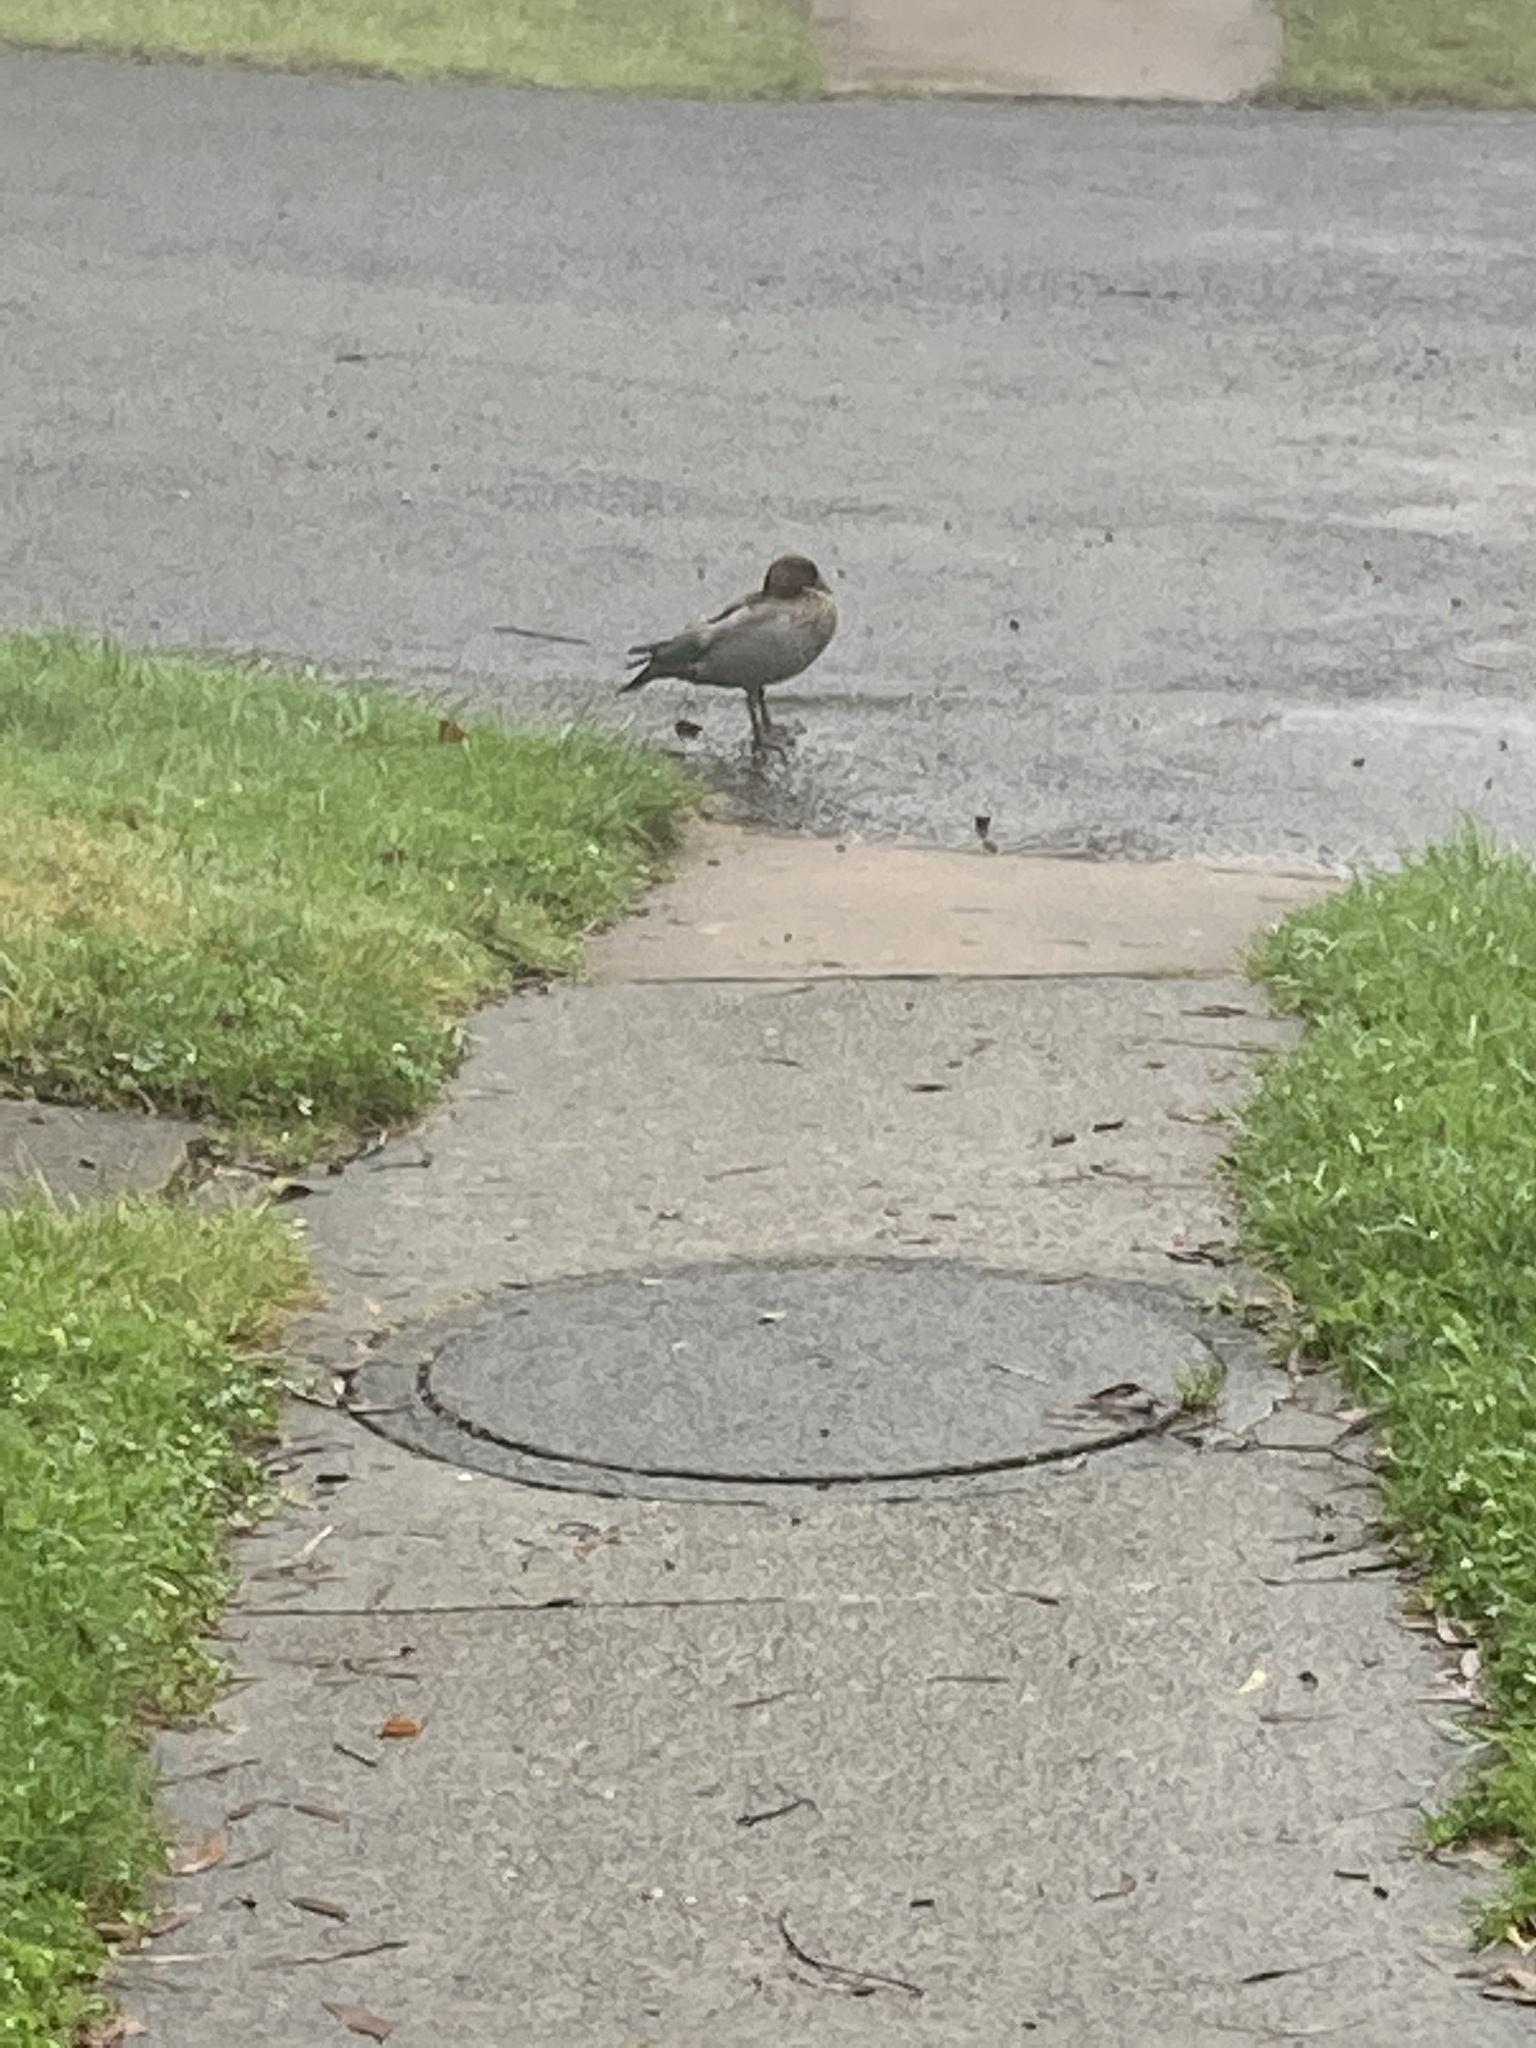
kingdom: Animalia
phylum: Chordata
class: Aves
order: Anseriformes
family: Anatidae
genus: Chenonetta
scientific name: Chenonetta jubata
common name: Maned duck
